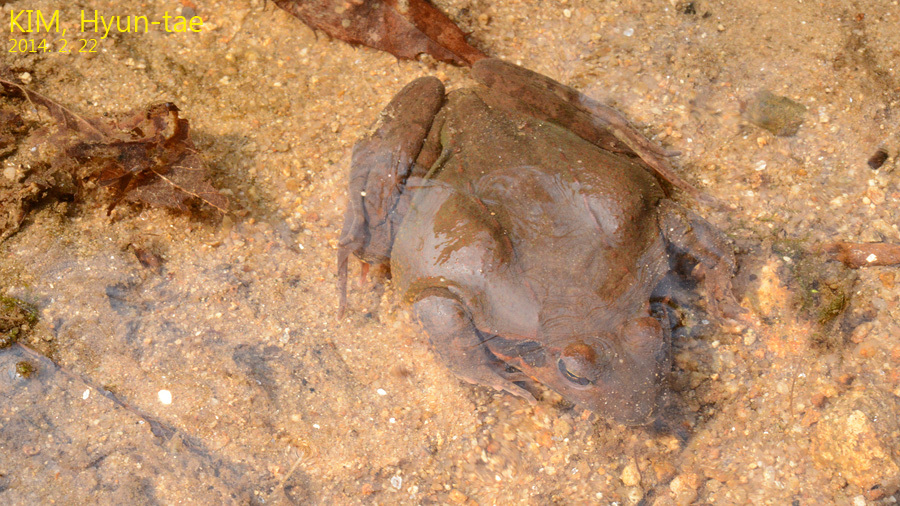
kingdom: Animalia
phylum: Chordata
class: Amphibia
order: Anura
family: Ranidae
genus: Rana
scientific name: Rana uenoi
